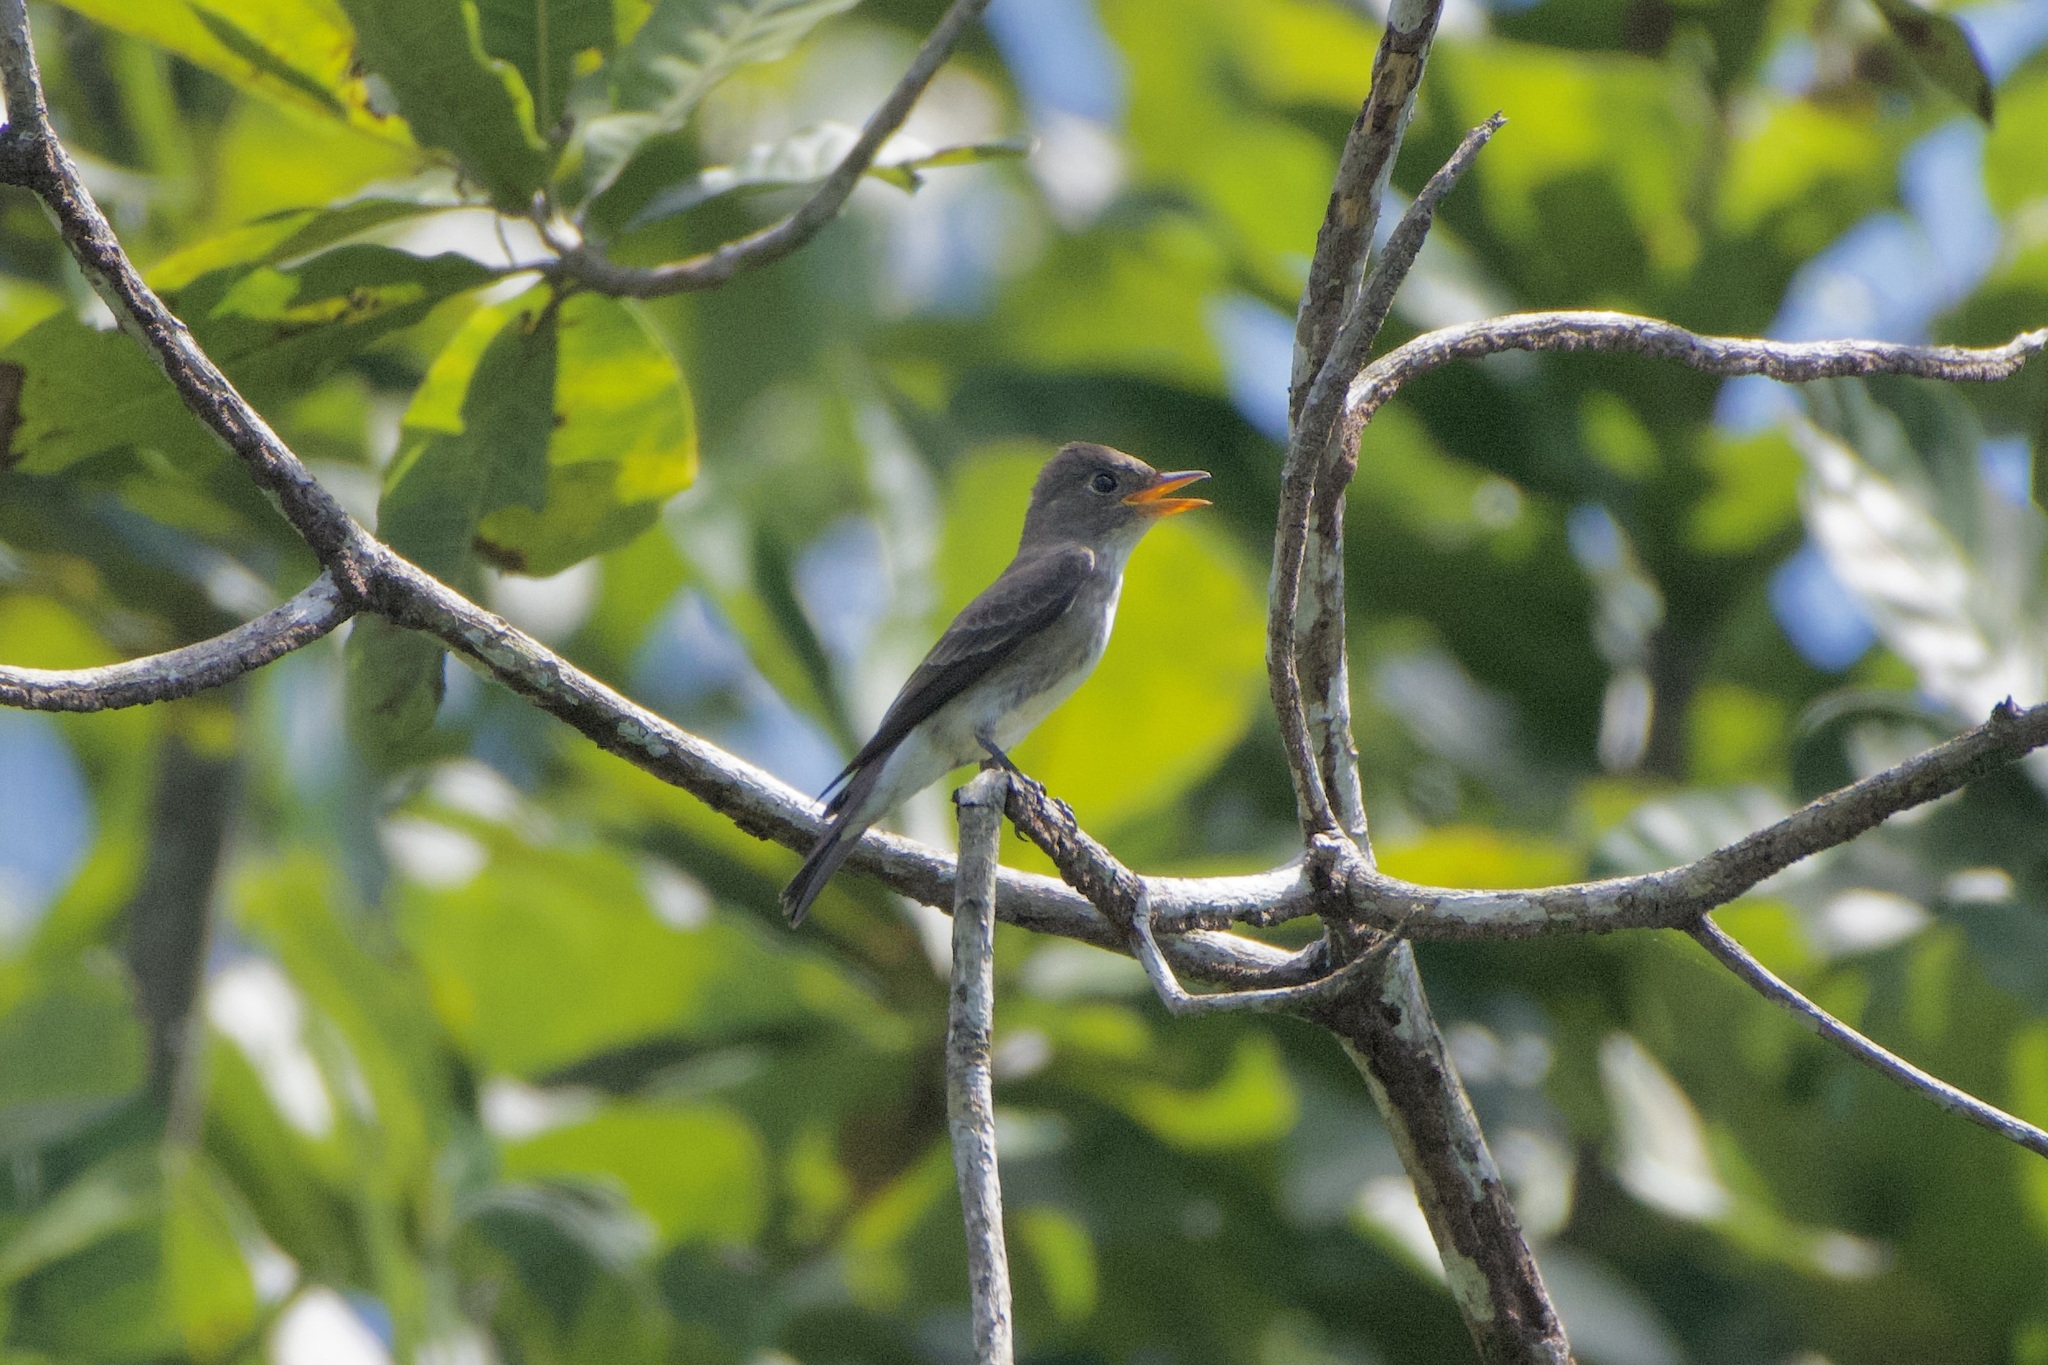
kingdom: Animalia
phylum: Chordata
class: Aves
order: Passeriformes
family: Tyrannidae
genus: Contopus
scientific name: Contopus virens
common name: Eastern wood-pewee
